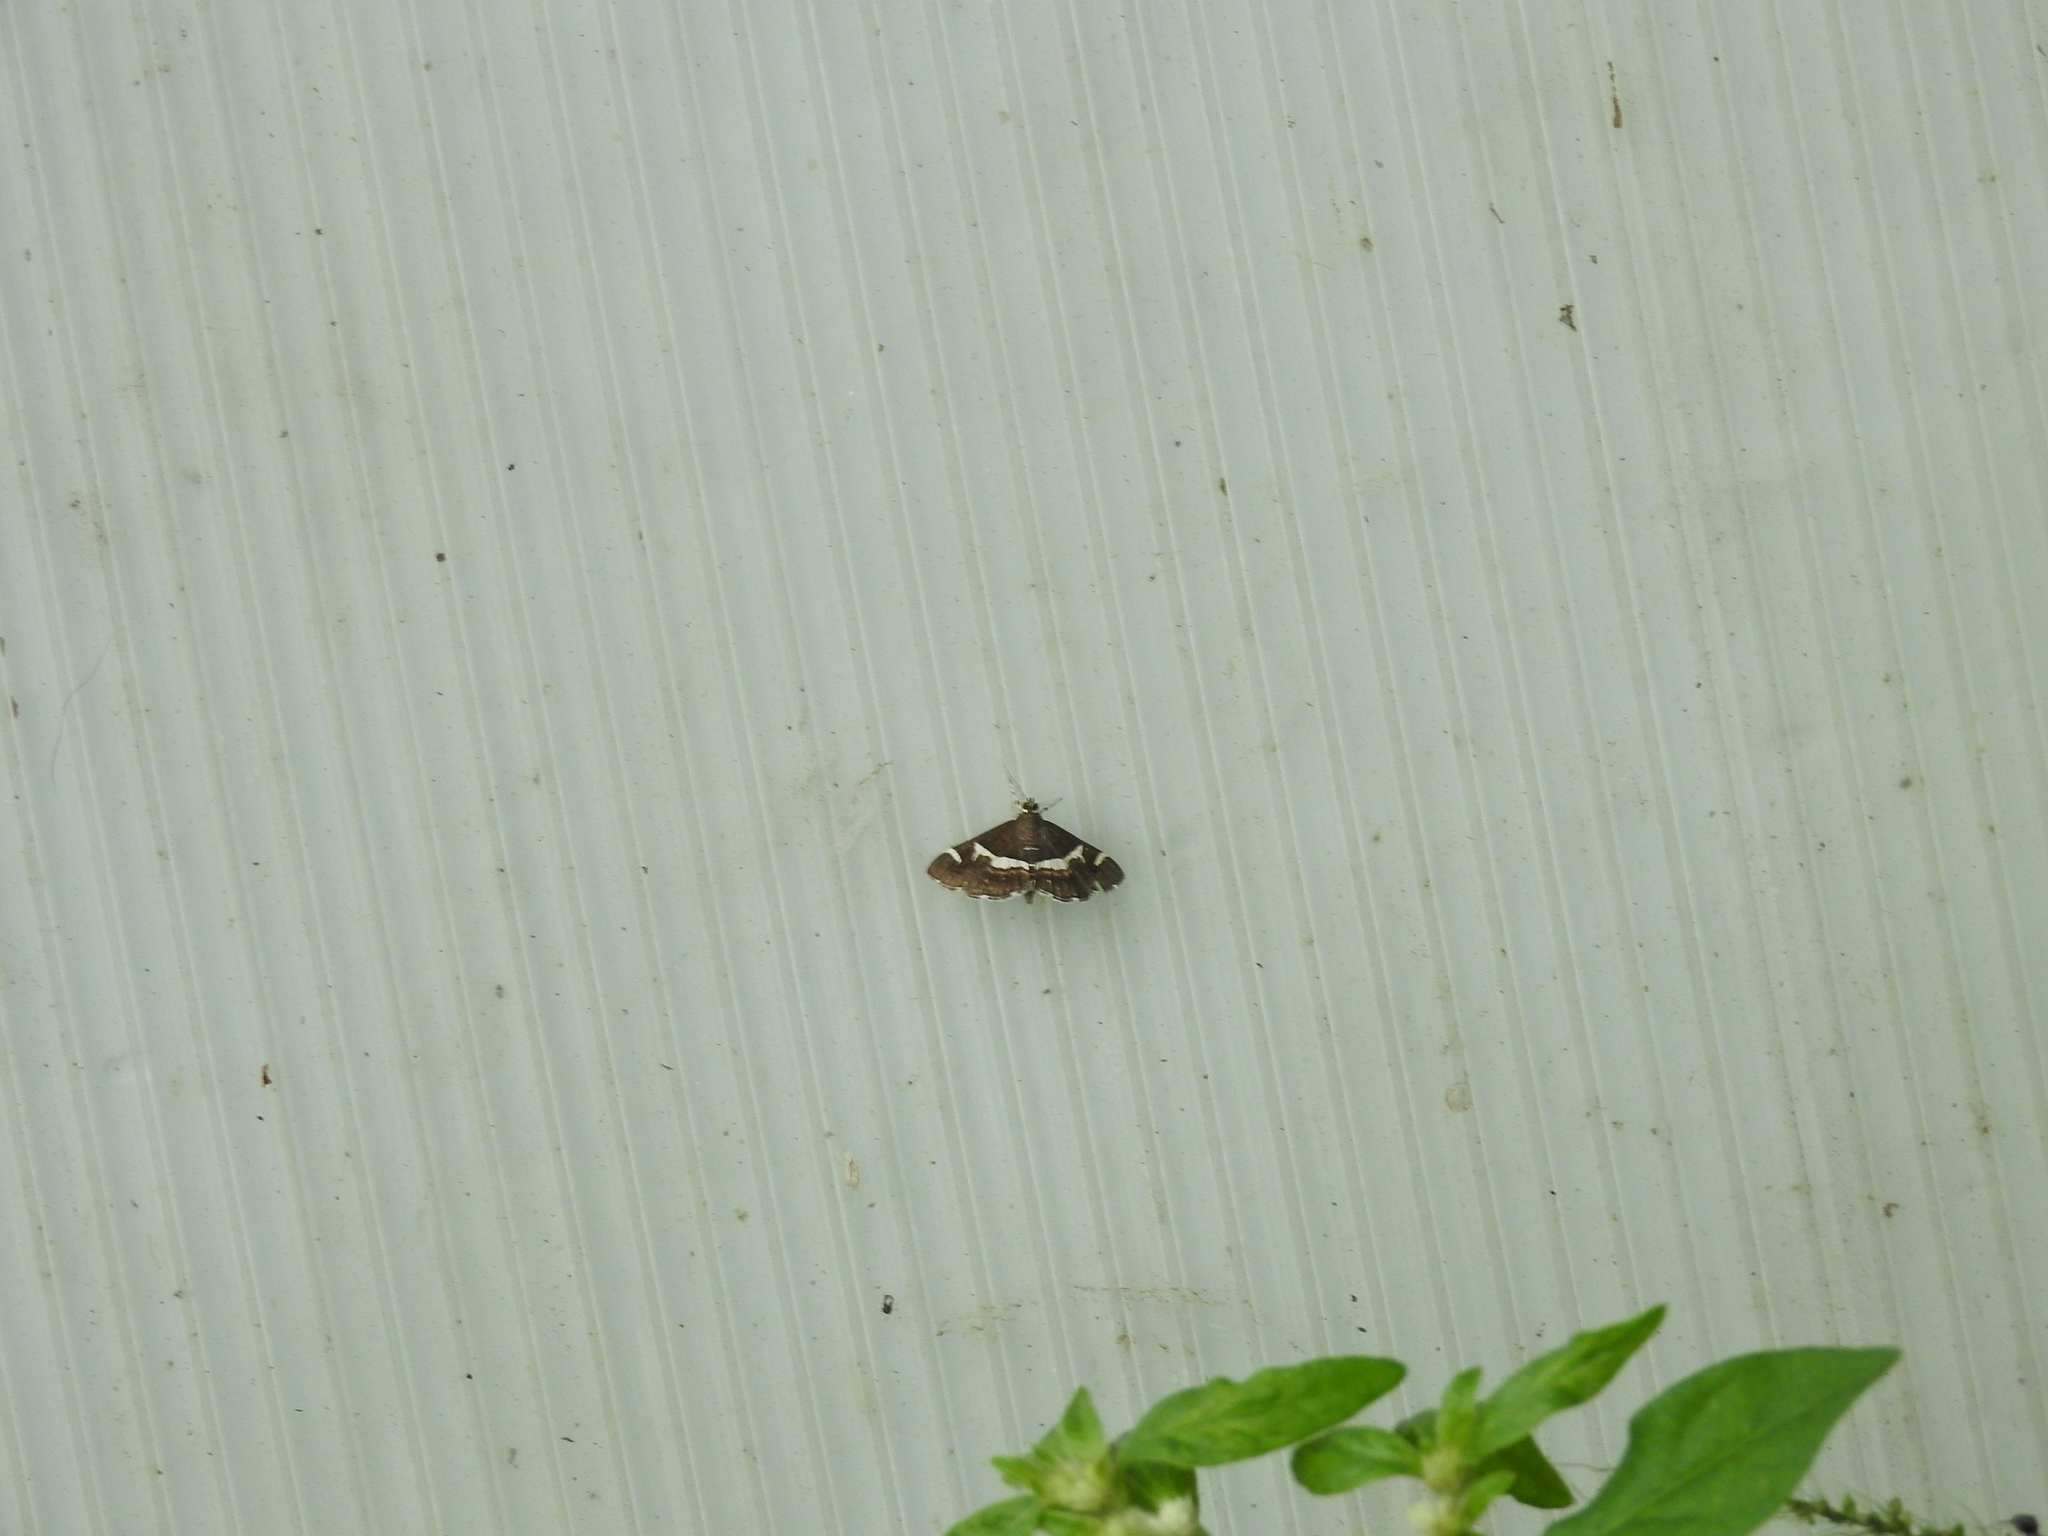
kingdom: Animalia
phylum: Arthropoda
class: Insecta
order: Lepidoptera
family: Crambidae
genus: Spoladea
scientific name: Spoladea recurvalis
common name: Beet webworm moth
